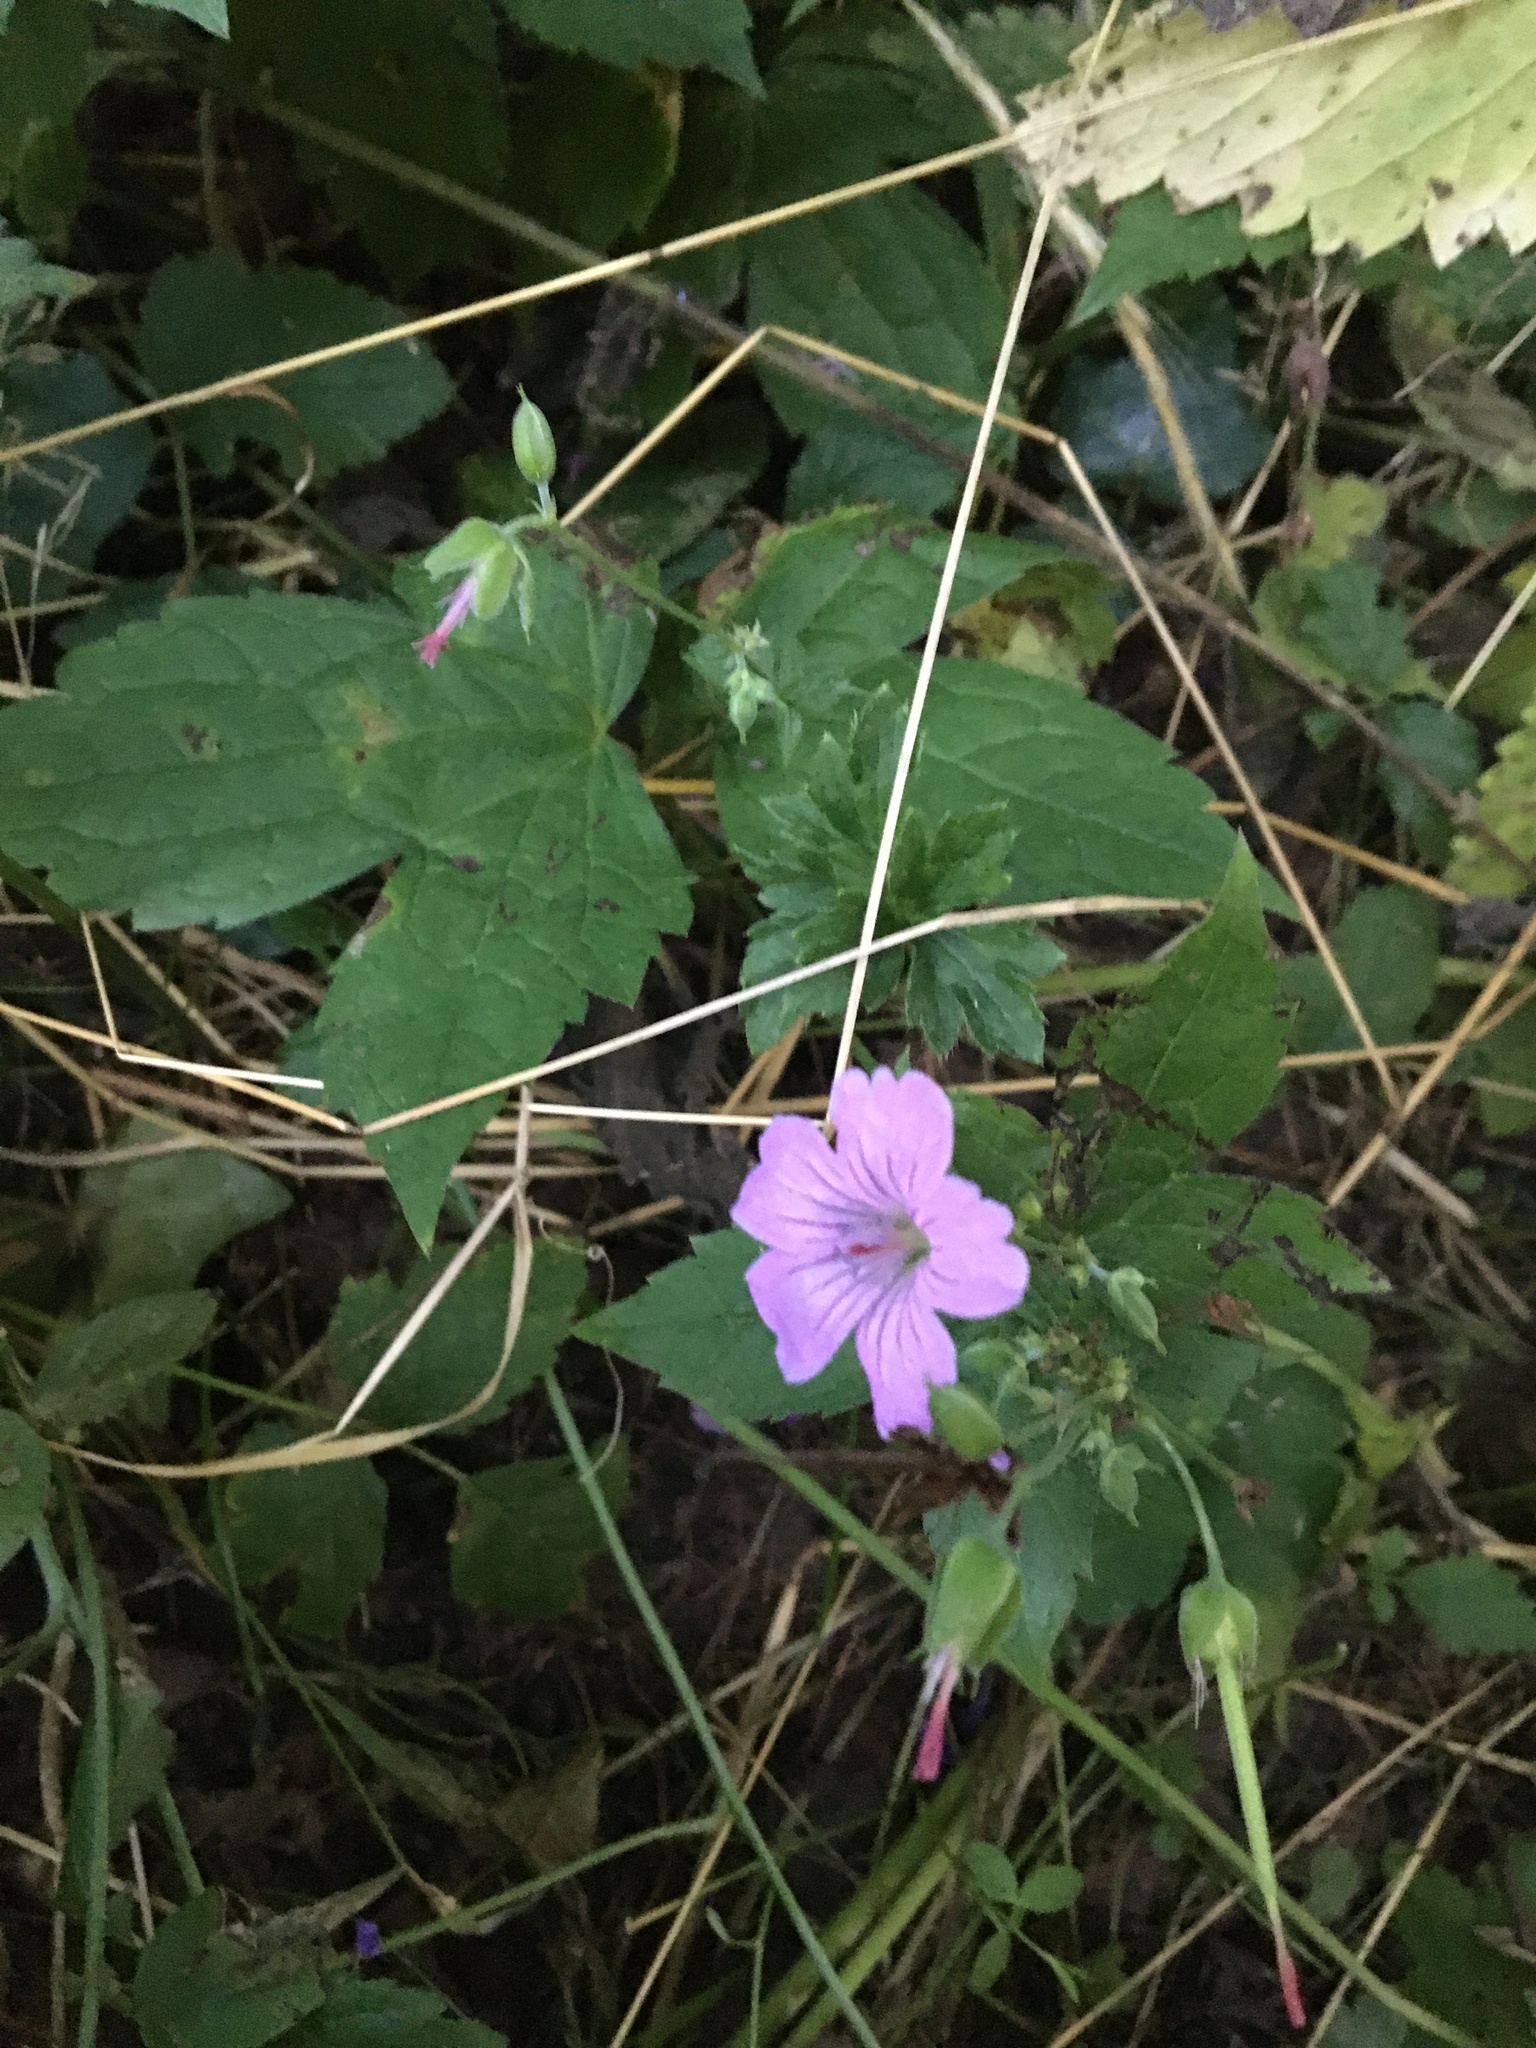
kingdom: Plantae
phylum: Tracheophyta
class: Magnoliopsida
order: Geraniales
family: Geraniaceae
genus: Geranium
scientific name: Geranium nodosum
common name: Knotted crane's-bill
